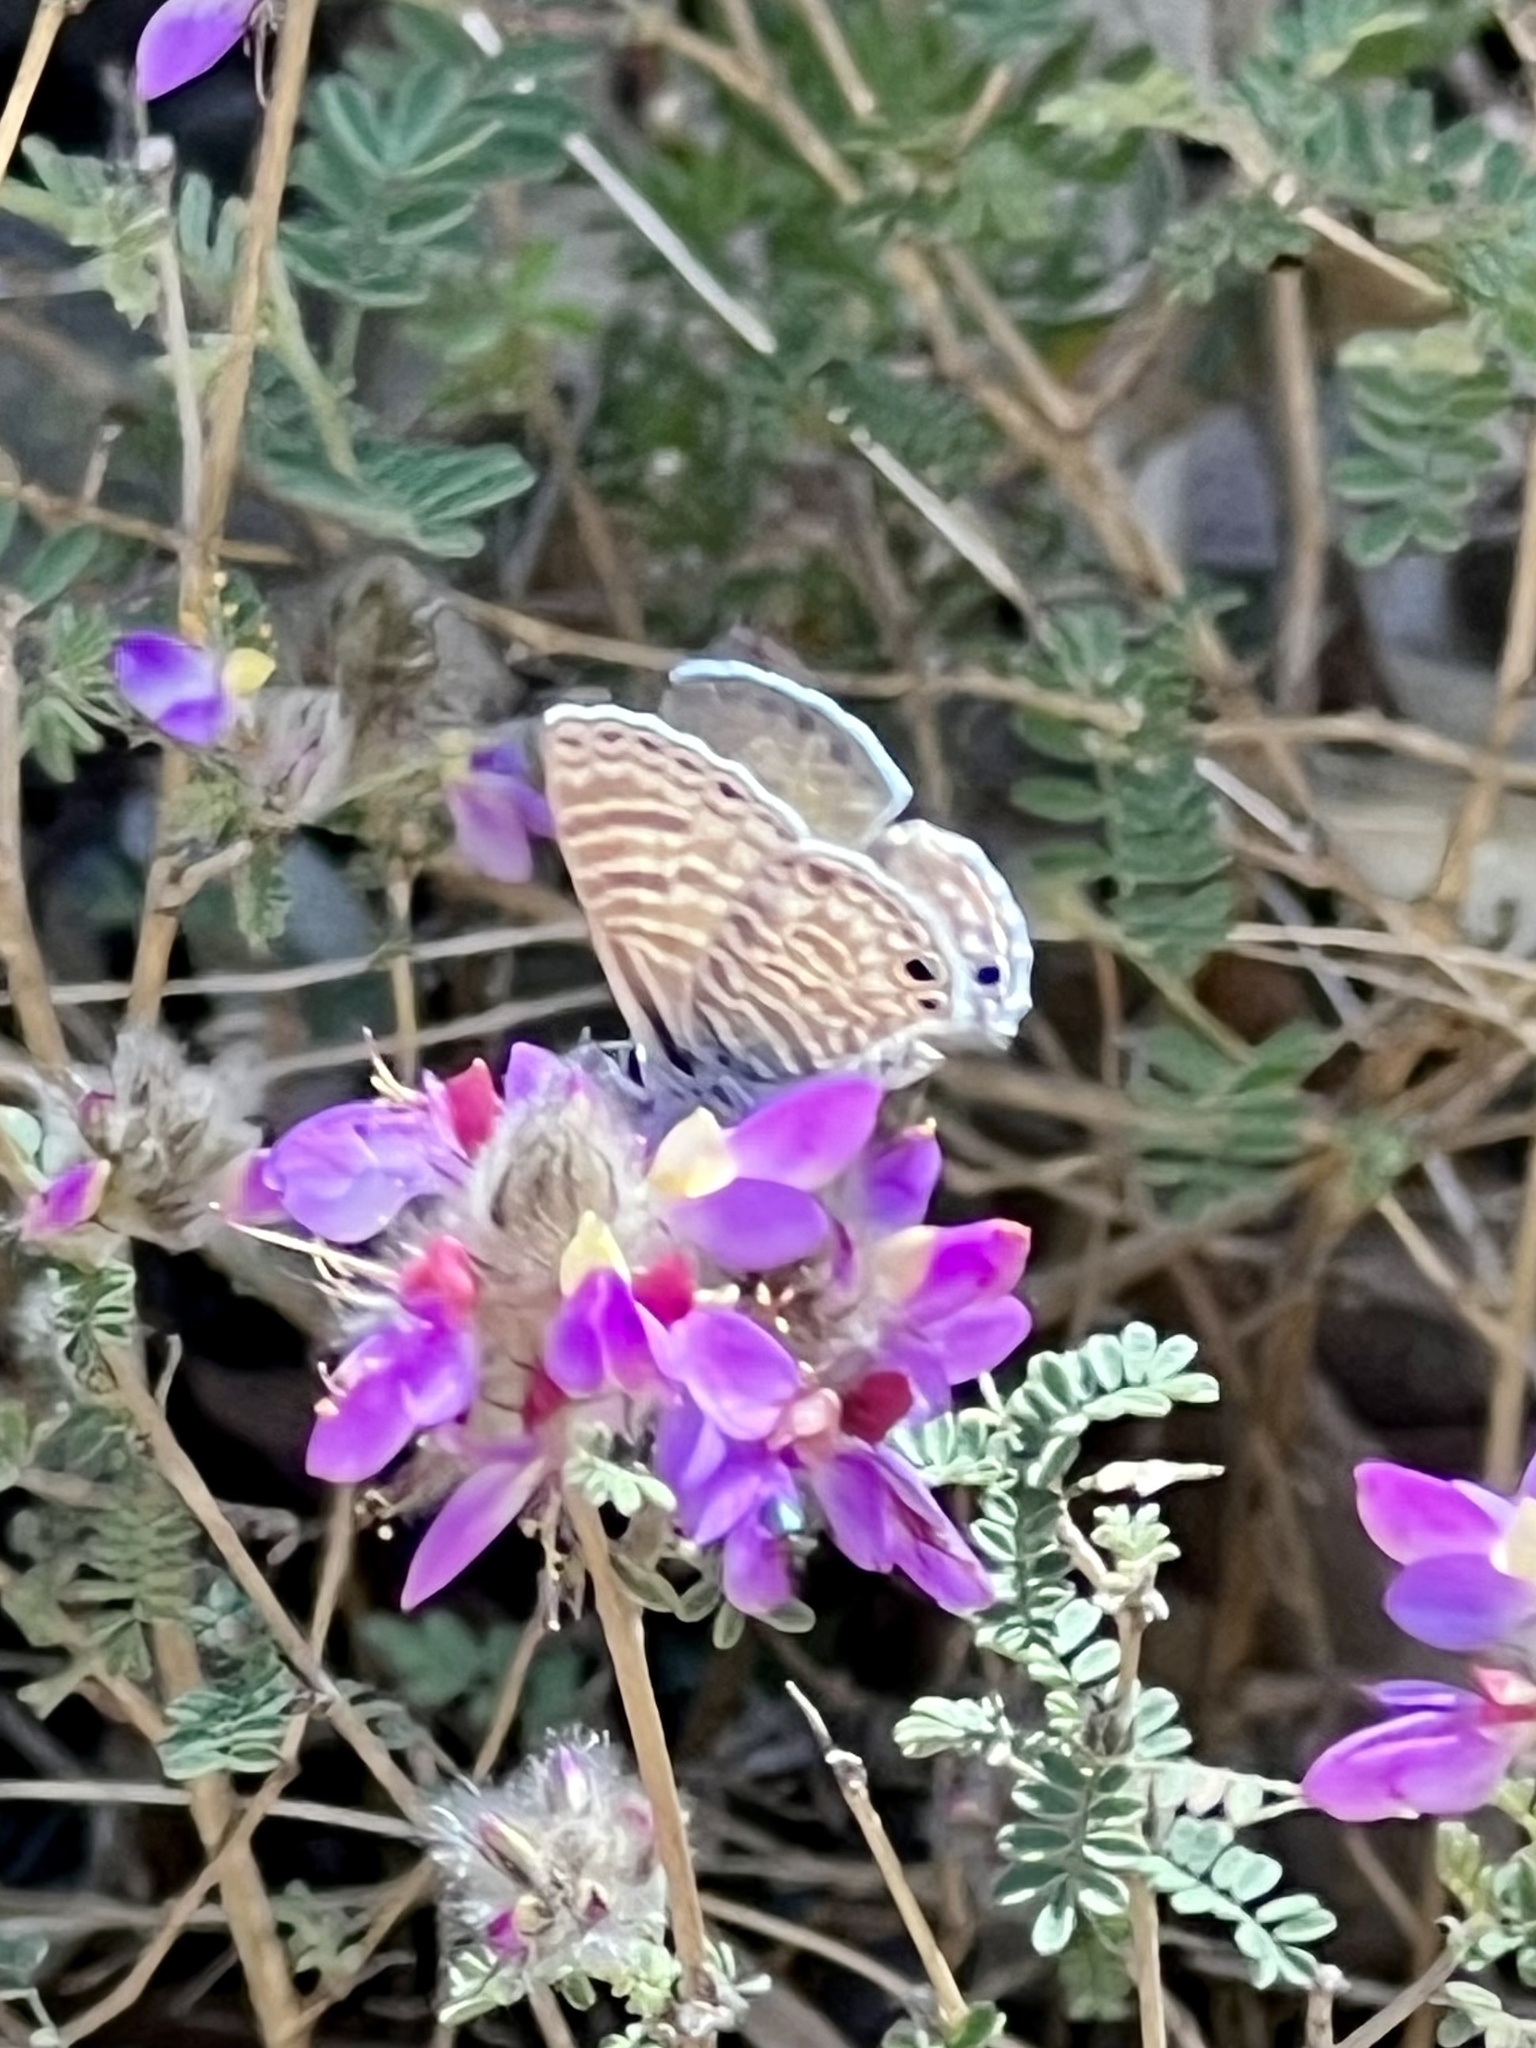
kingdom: Animalia
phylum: Arthropoda
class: Insecta
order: Lepidoptera
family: Lycaenidae
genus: Leptotes
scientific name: Leptotes marina
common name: Marine blue
